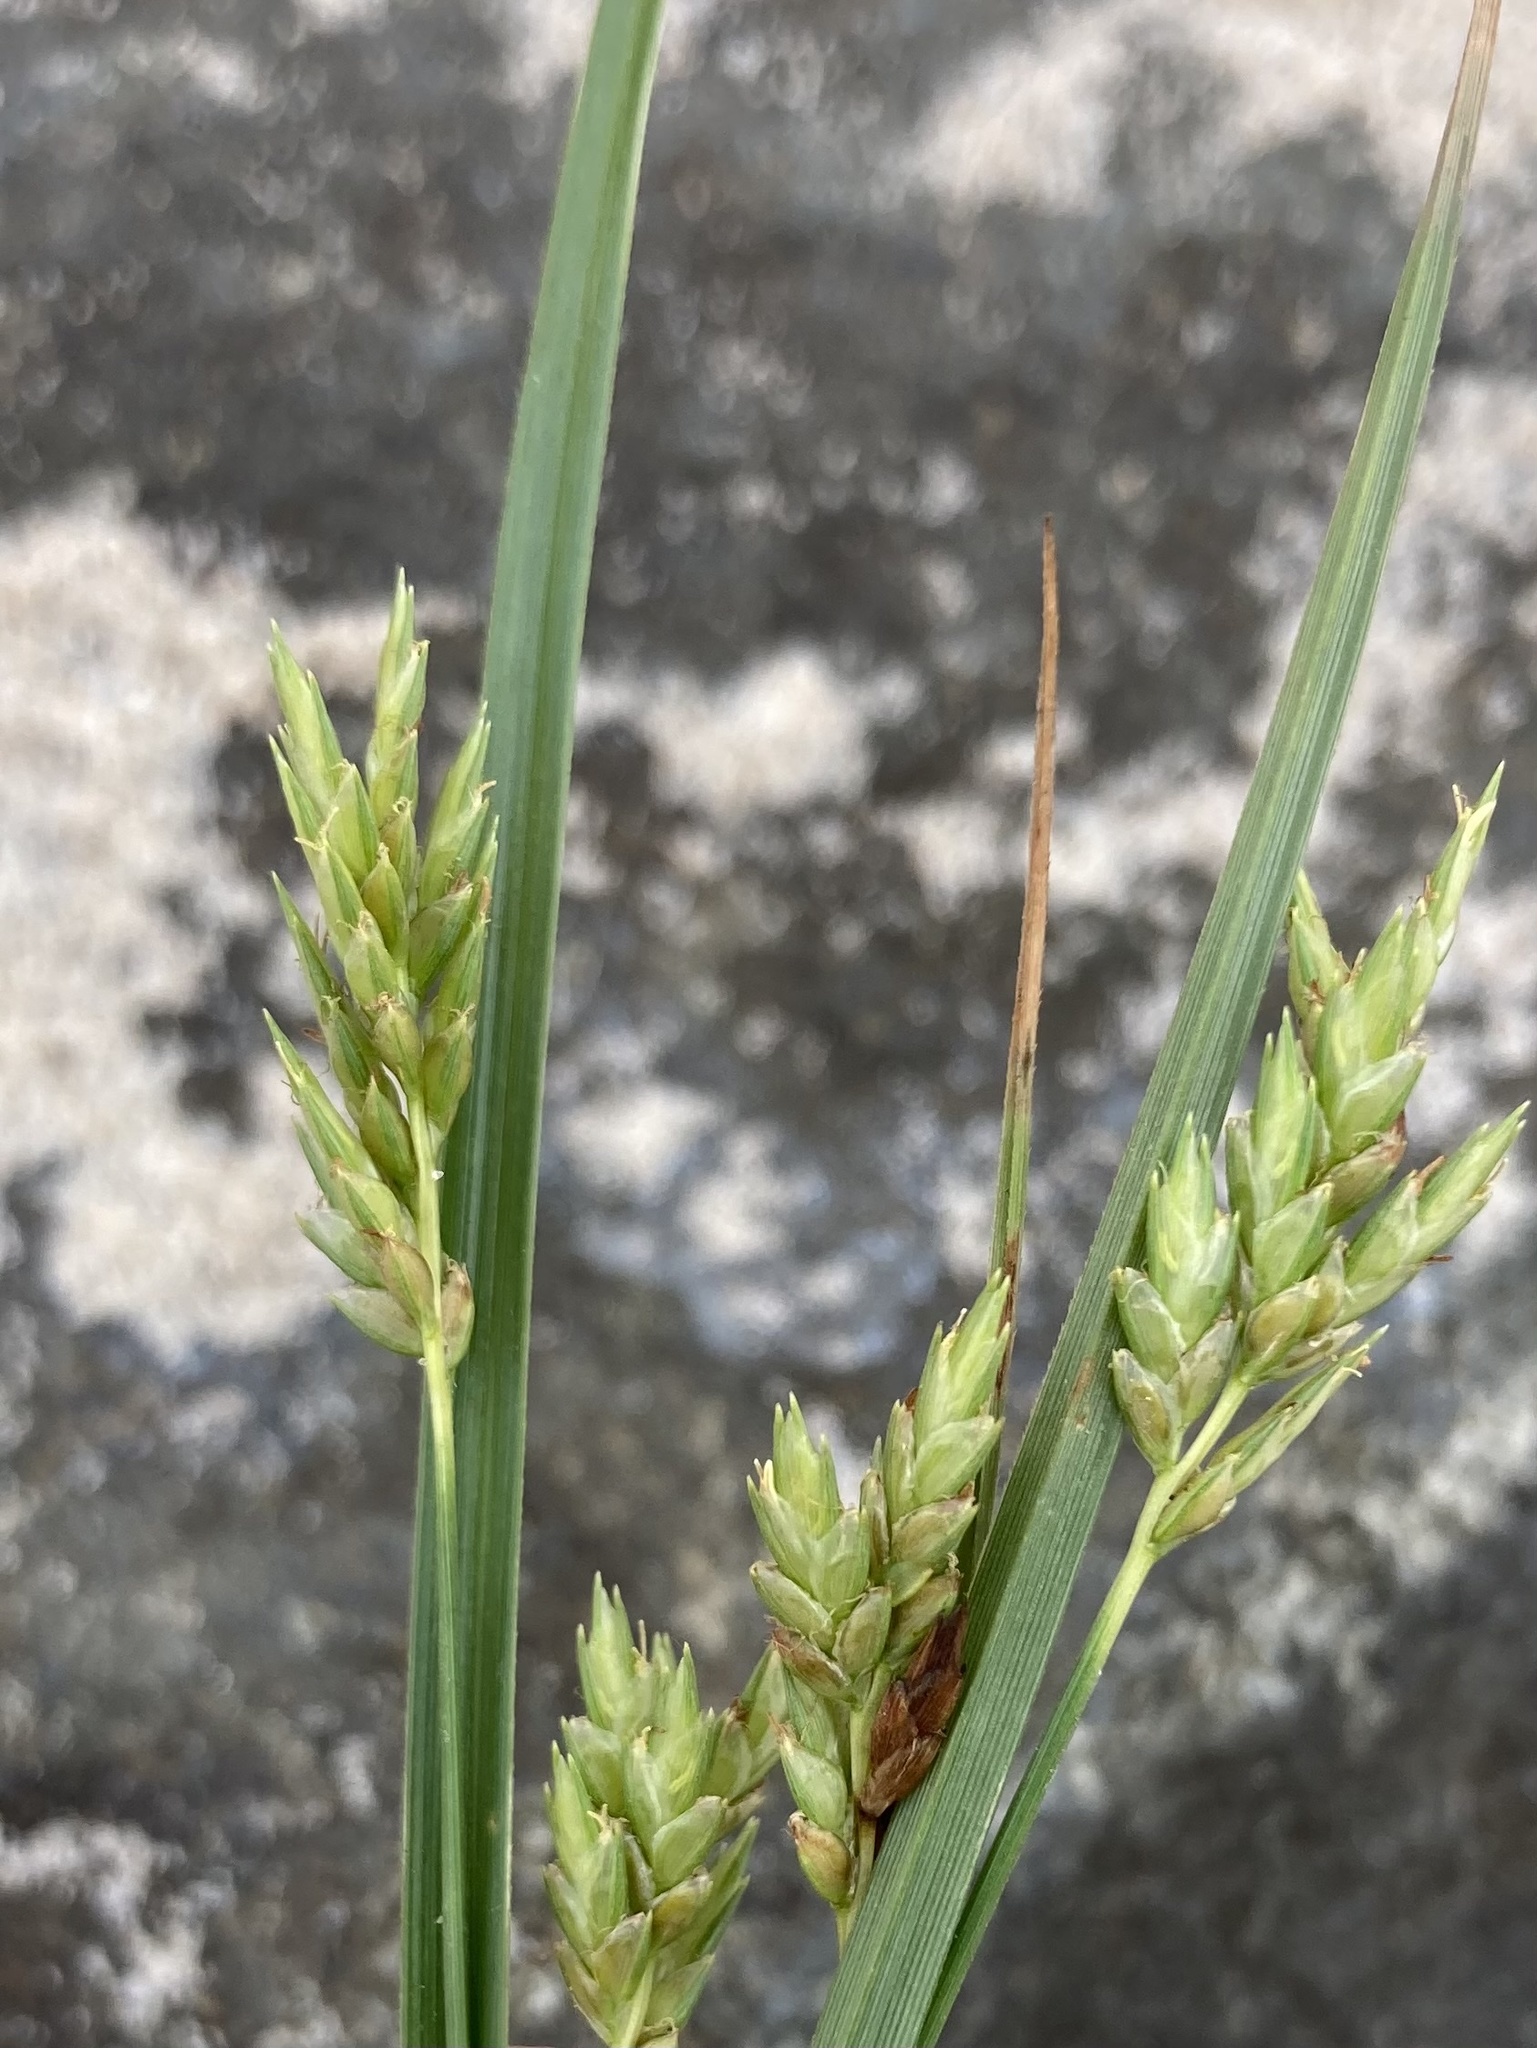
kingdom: Plantae
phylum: Tracheophyta
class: Liliopsida
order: Poales
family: Cyperaceae
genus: Cyperus
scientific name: Cyperus schweinitzii
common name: Schweinitz's cyperus
